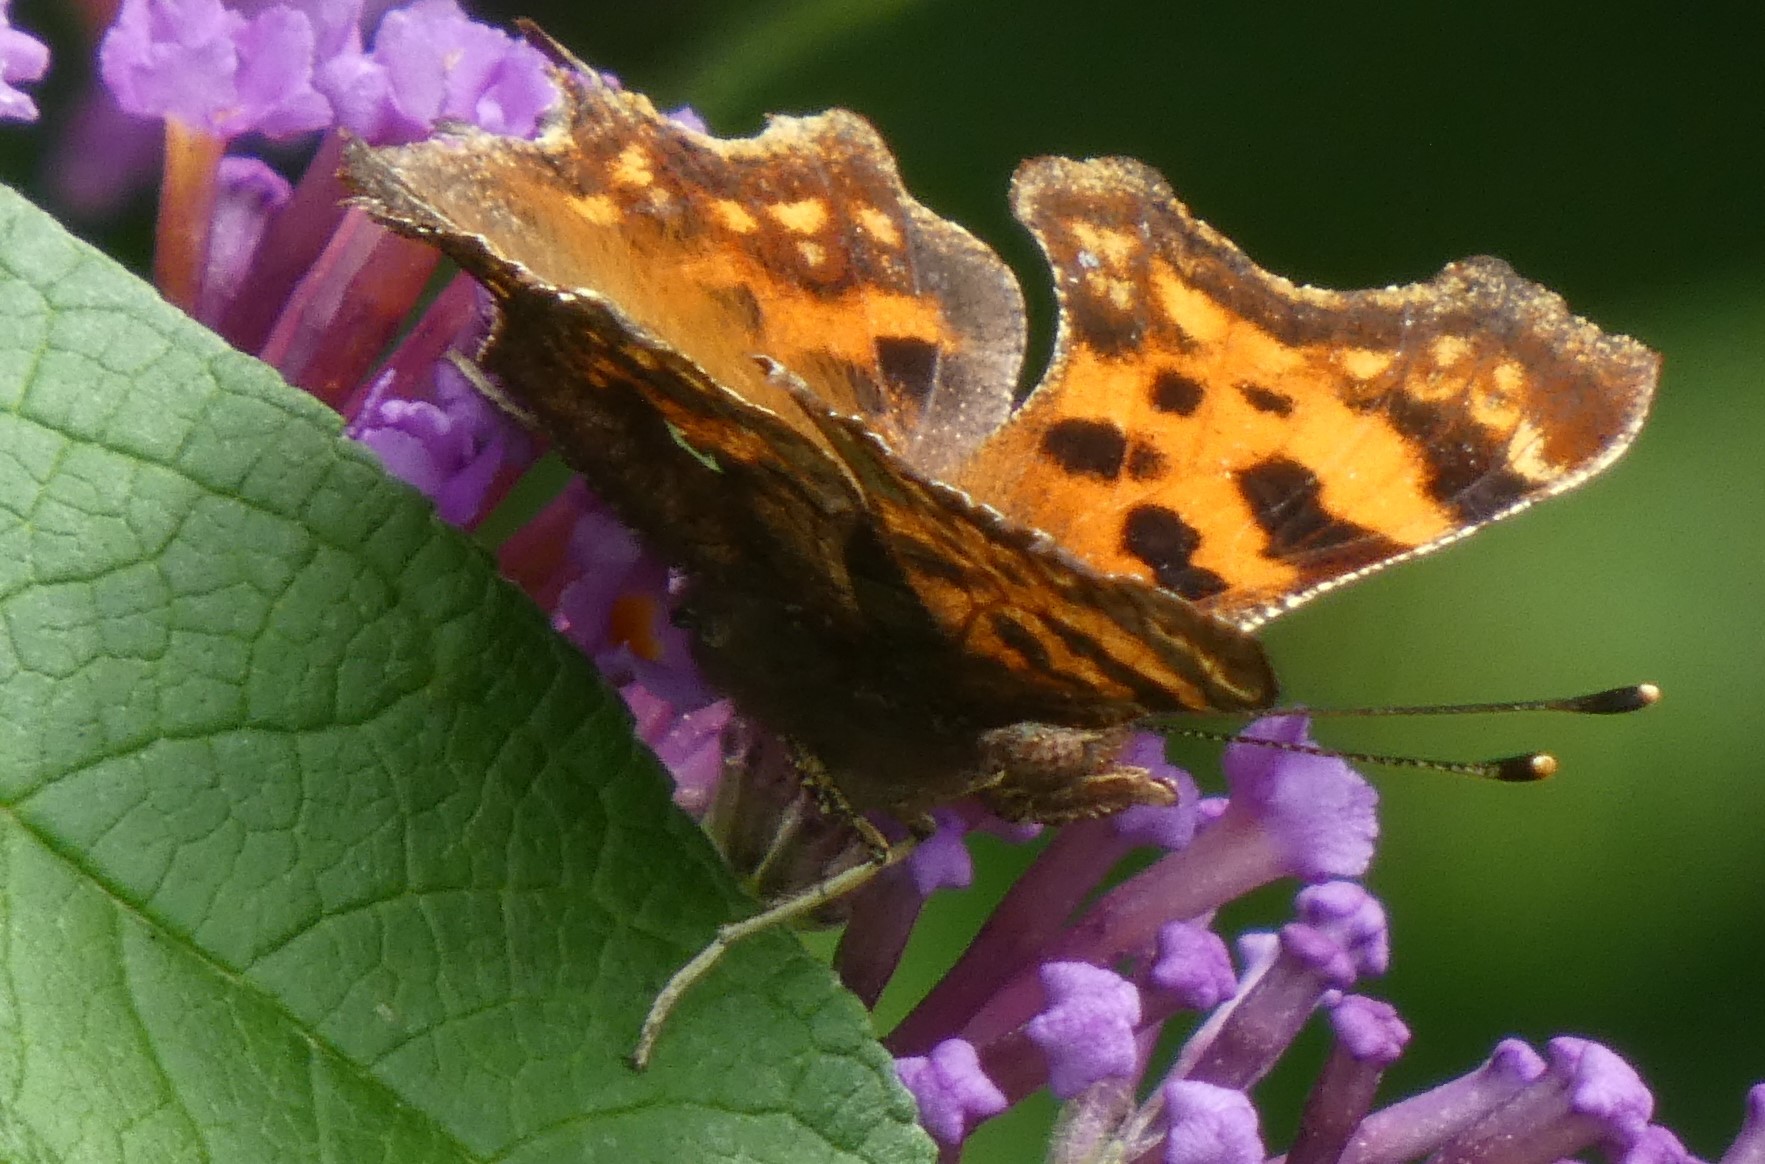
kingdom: Animalia
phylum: Arthropoda
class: Insecta
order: Lepidoptera
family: Nymphalidae
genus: Polygonia
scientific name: Polygonia c-album
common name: Comma
